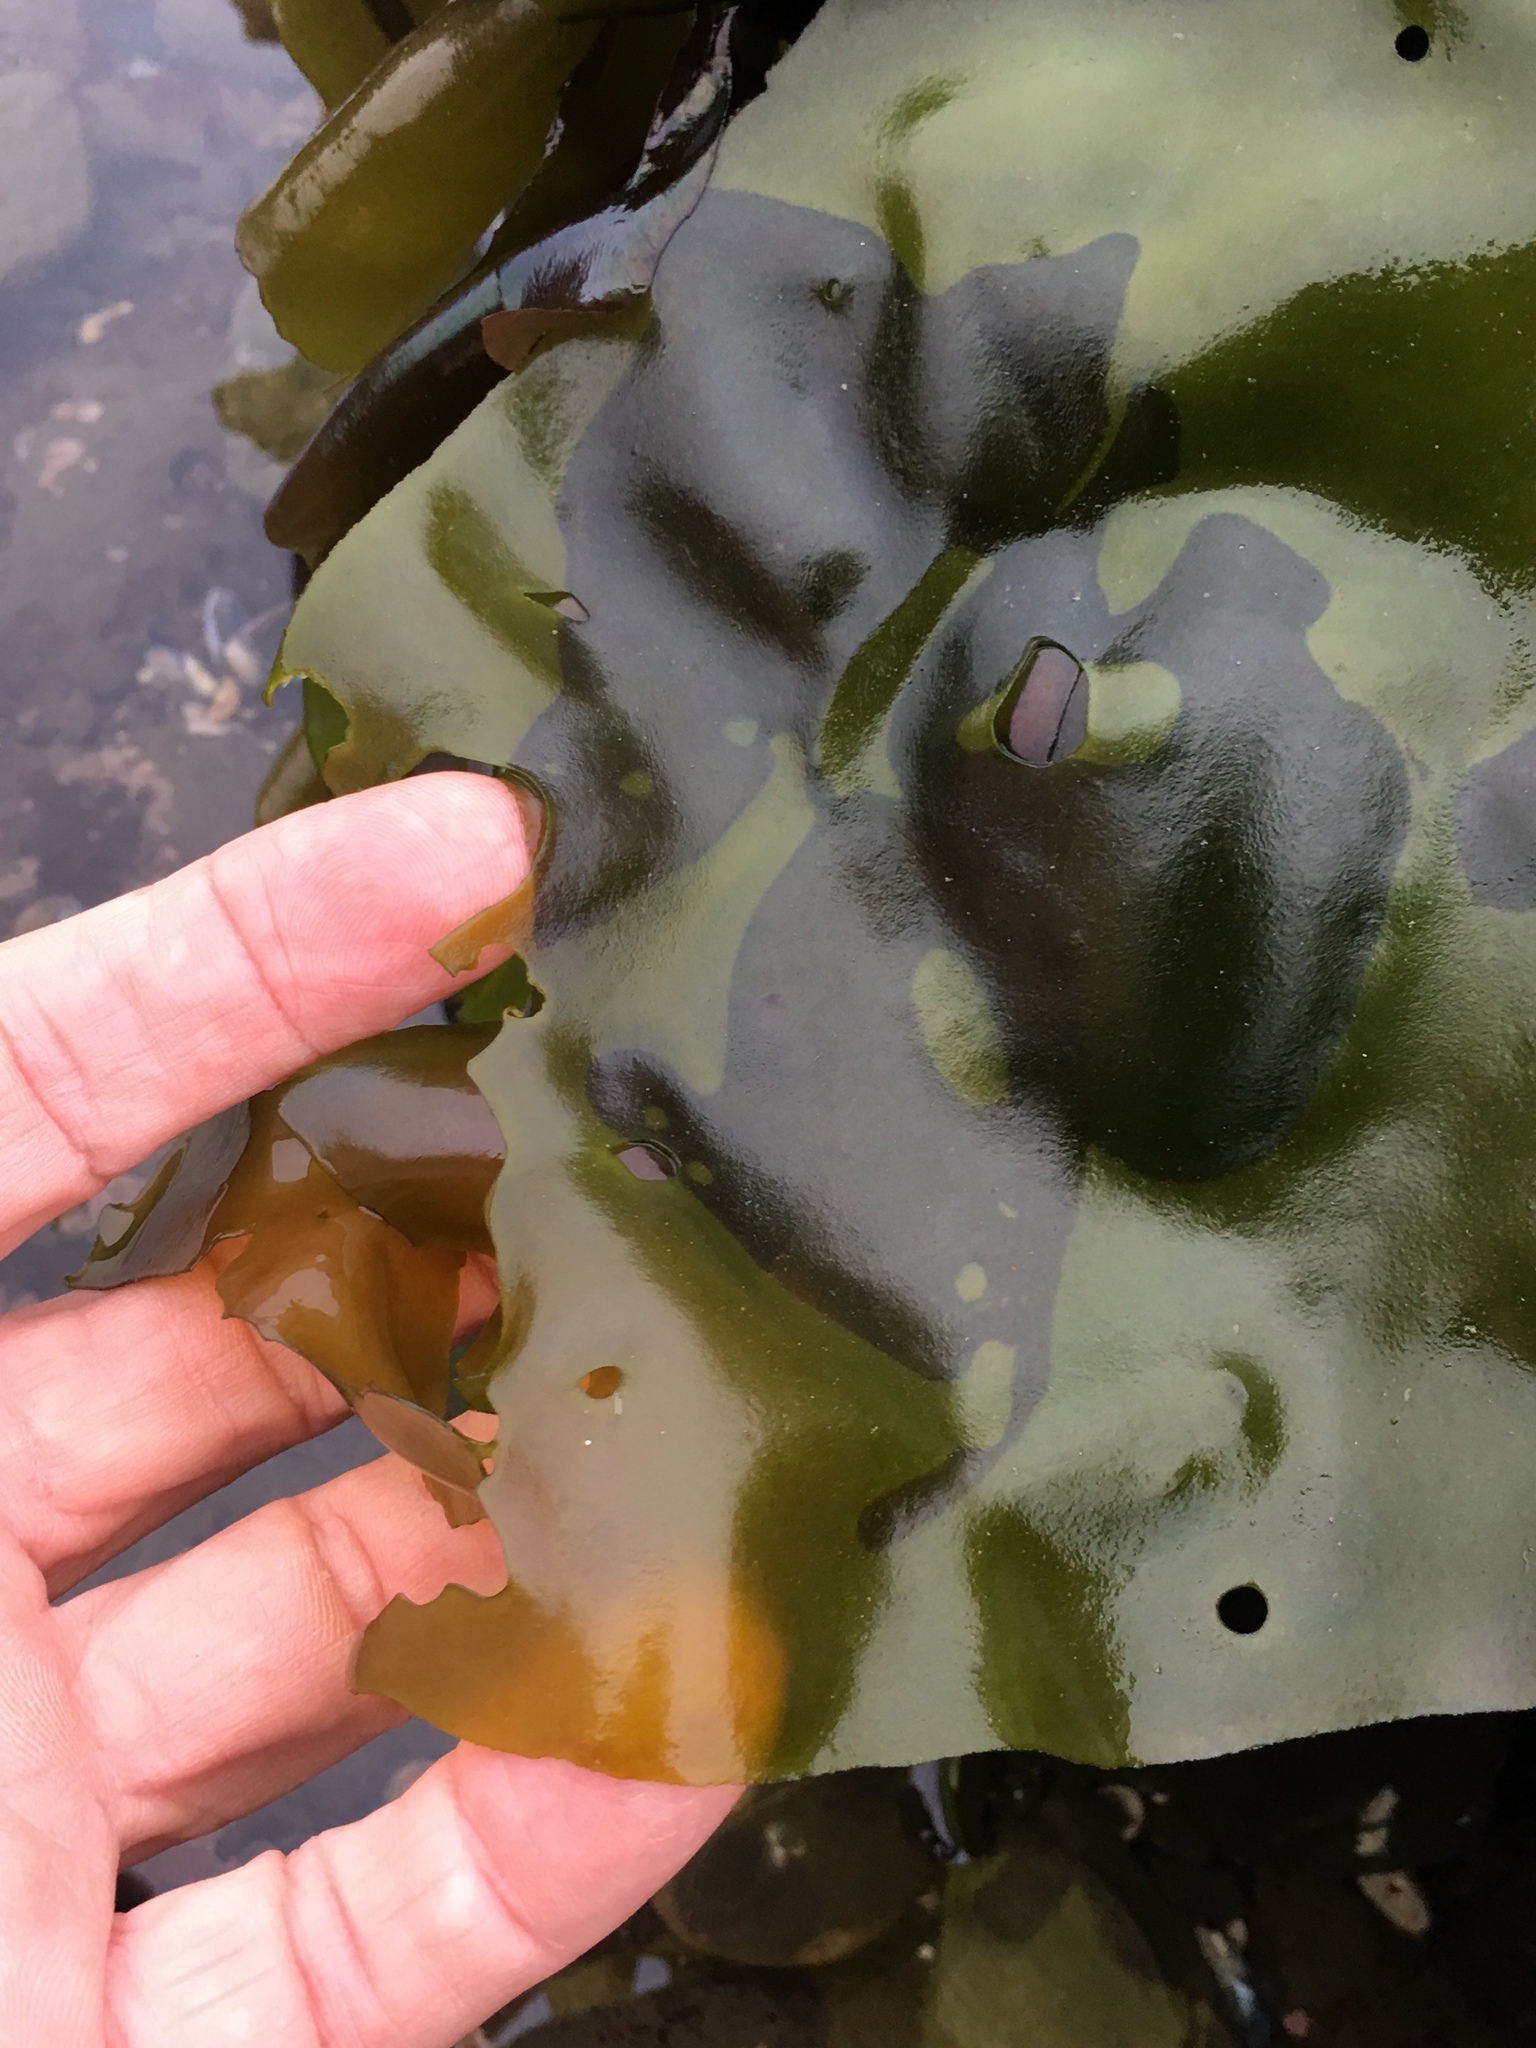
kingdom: Plantae
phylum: Rhodophyta
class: Florideophyceae
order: Gigartinales
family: Gigartinaceae
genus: Mazzaella
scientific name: Mazzaella flaccida
